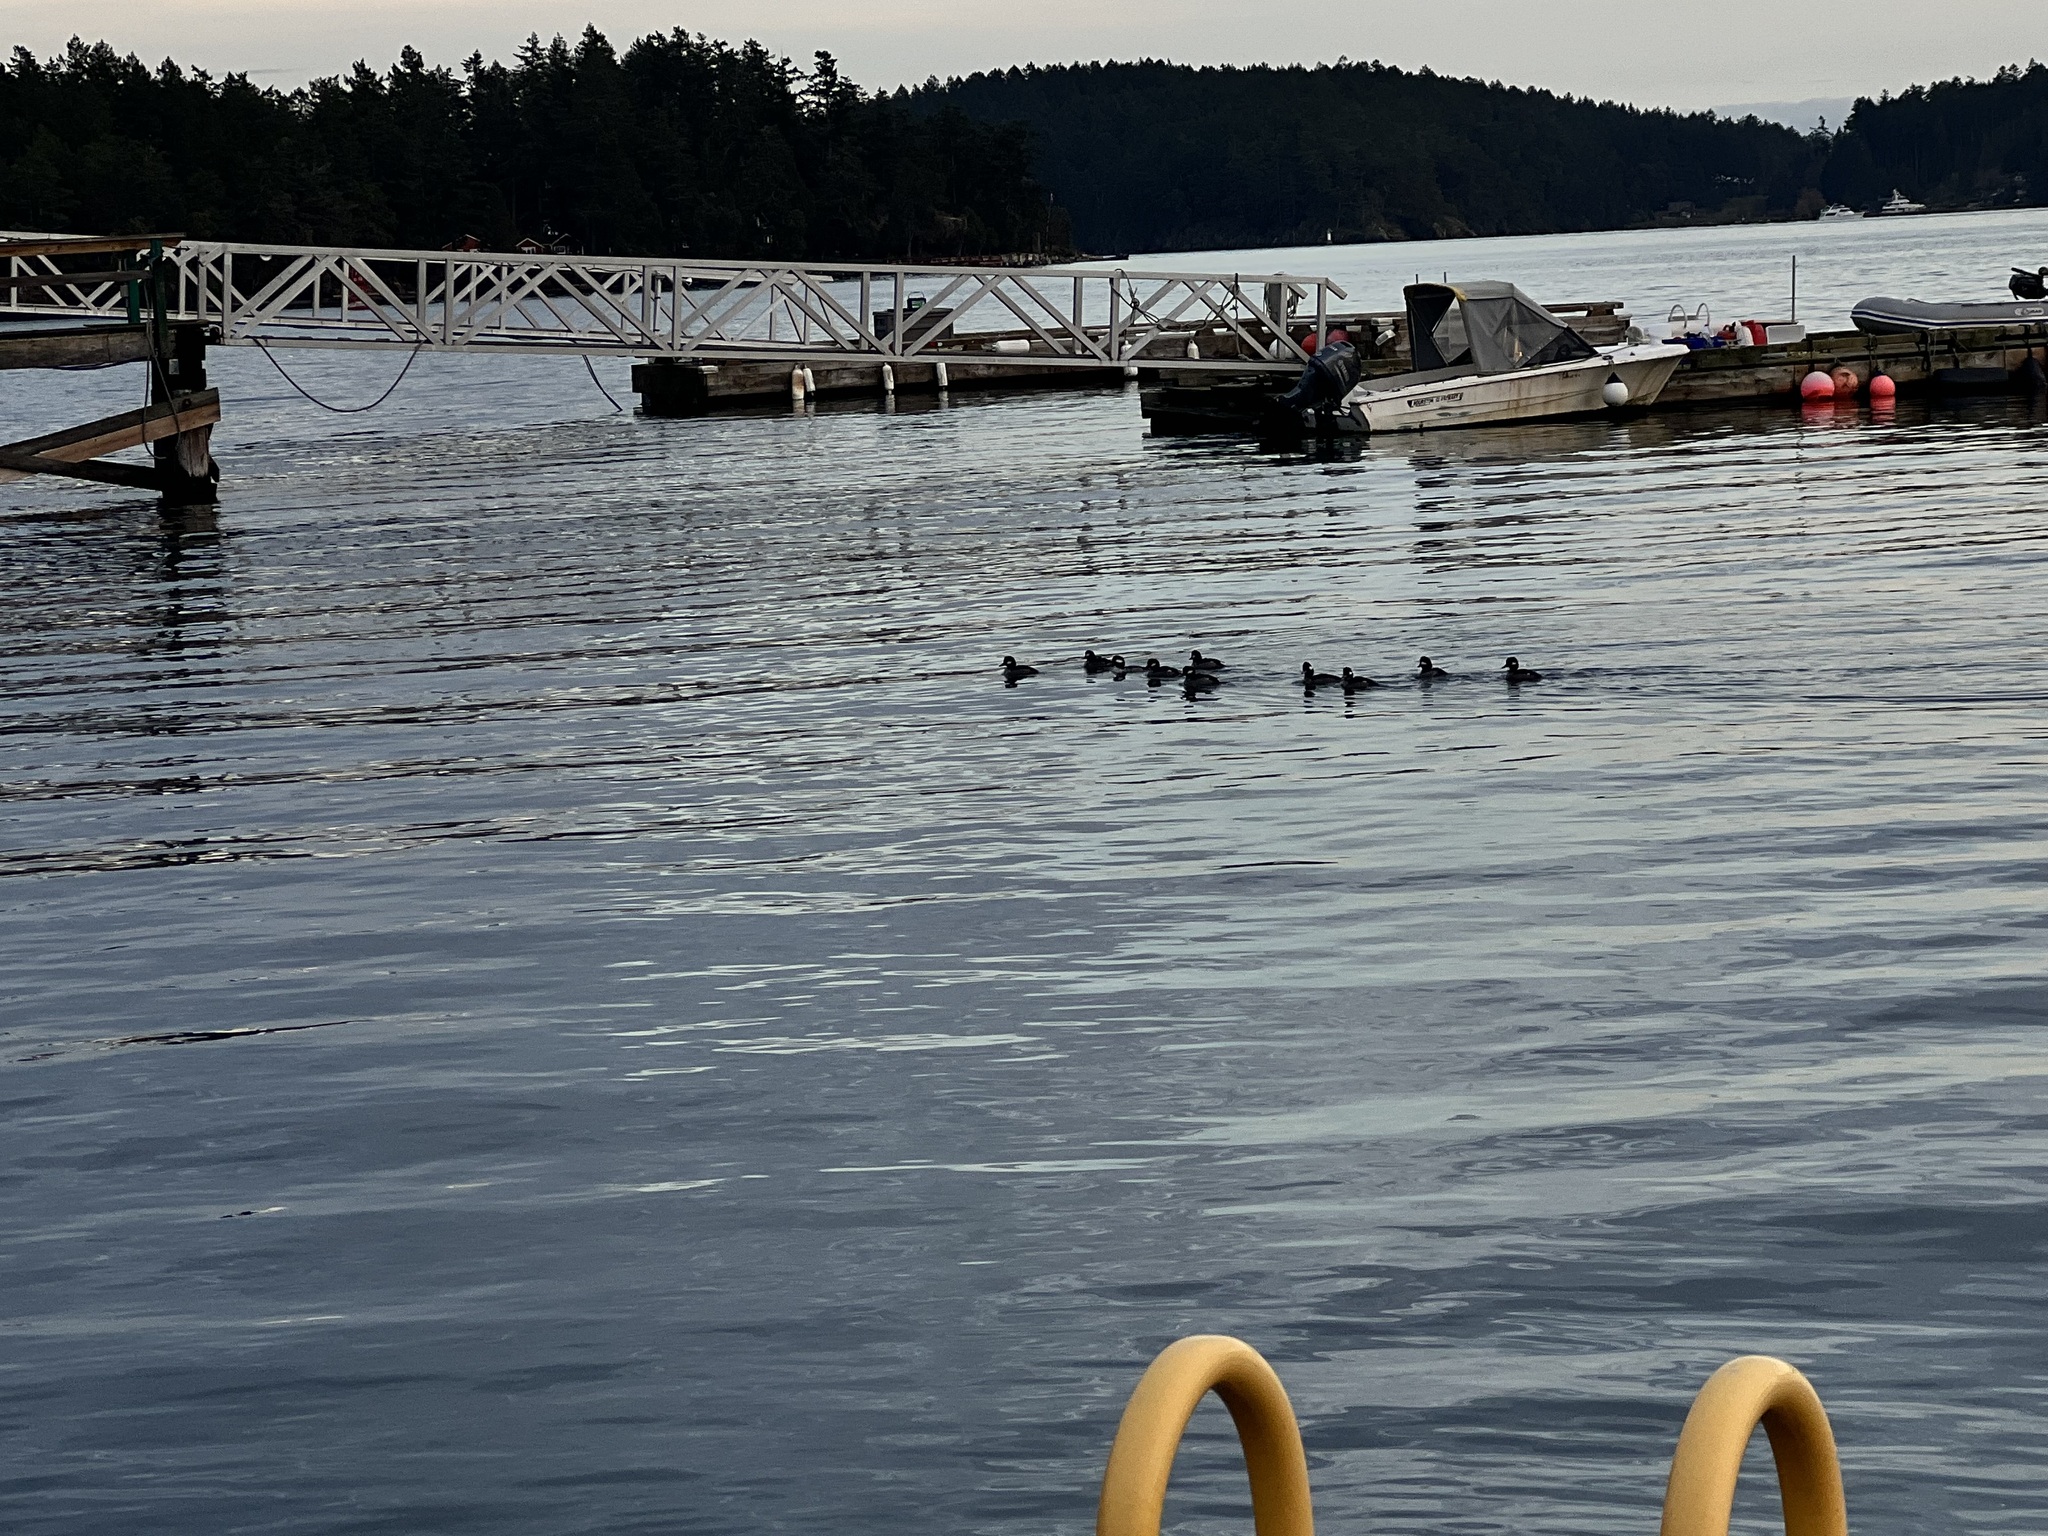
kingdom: Animalia
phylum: Chordata
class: Aves
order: Anseriformes
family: Anatidae
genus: Bucephala
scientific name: Bucephala albeola
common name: Bufflehead
